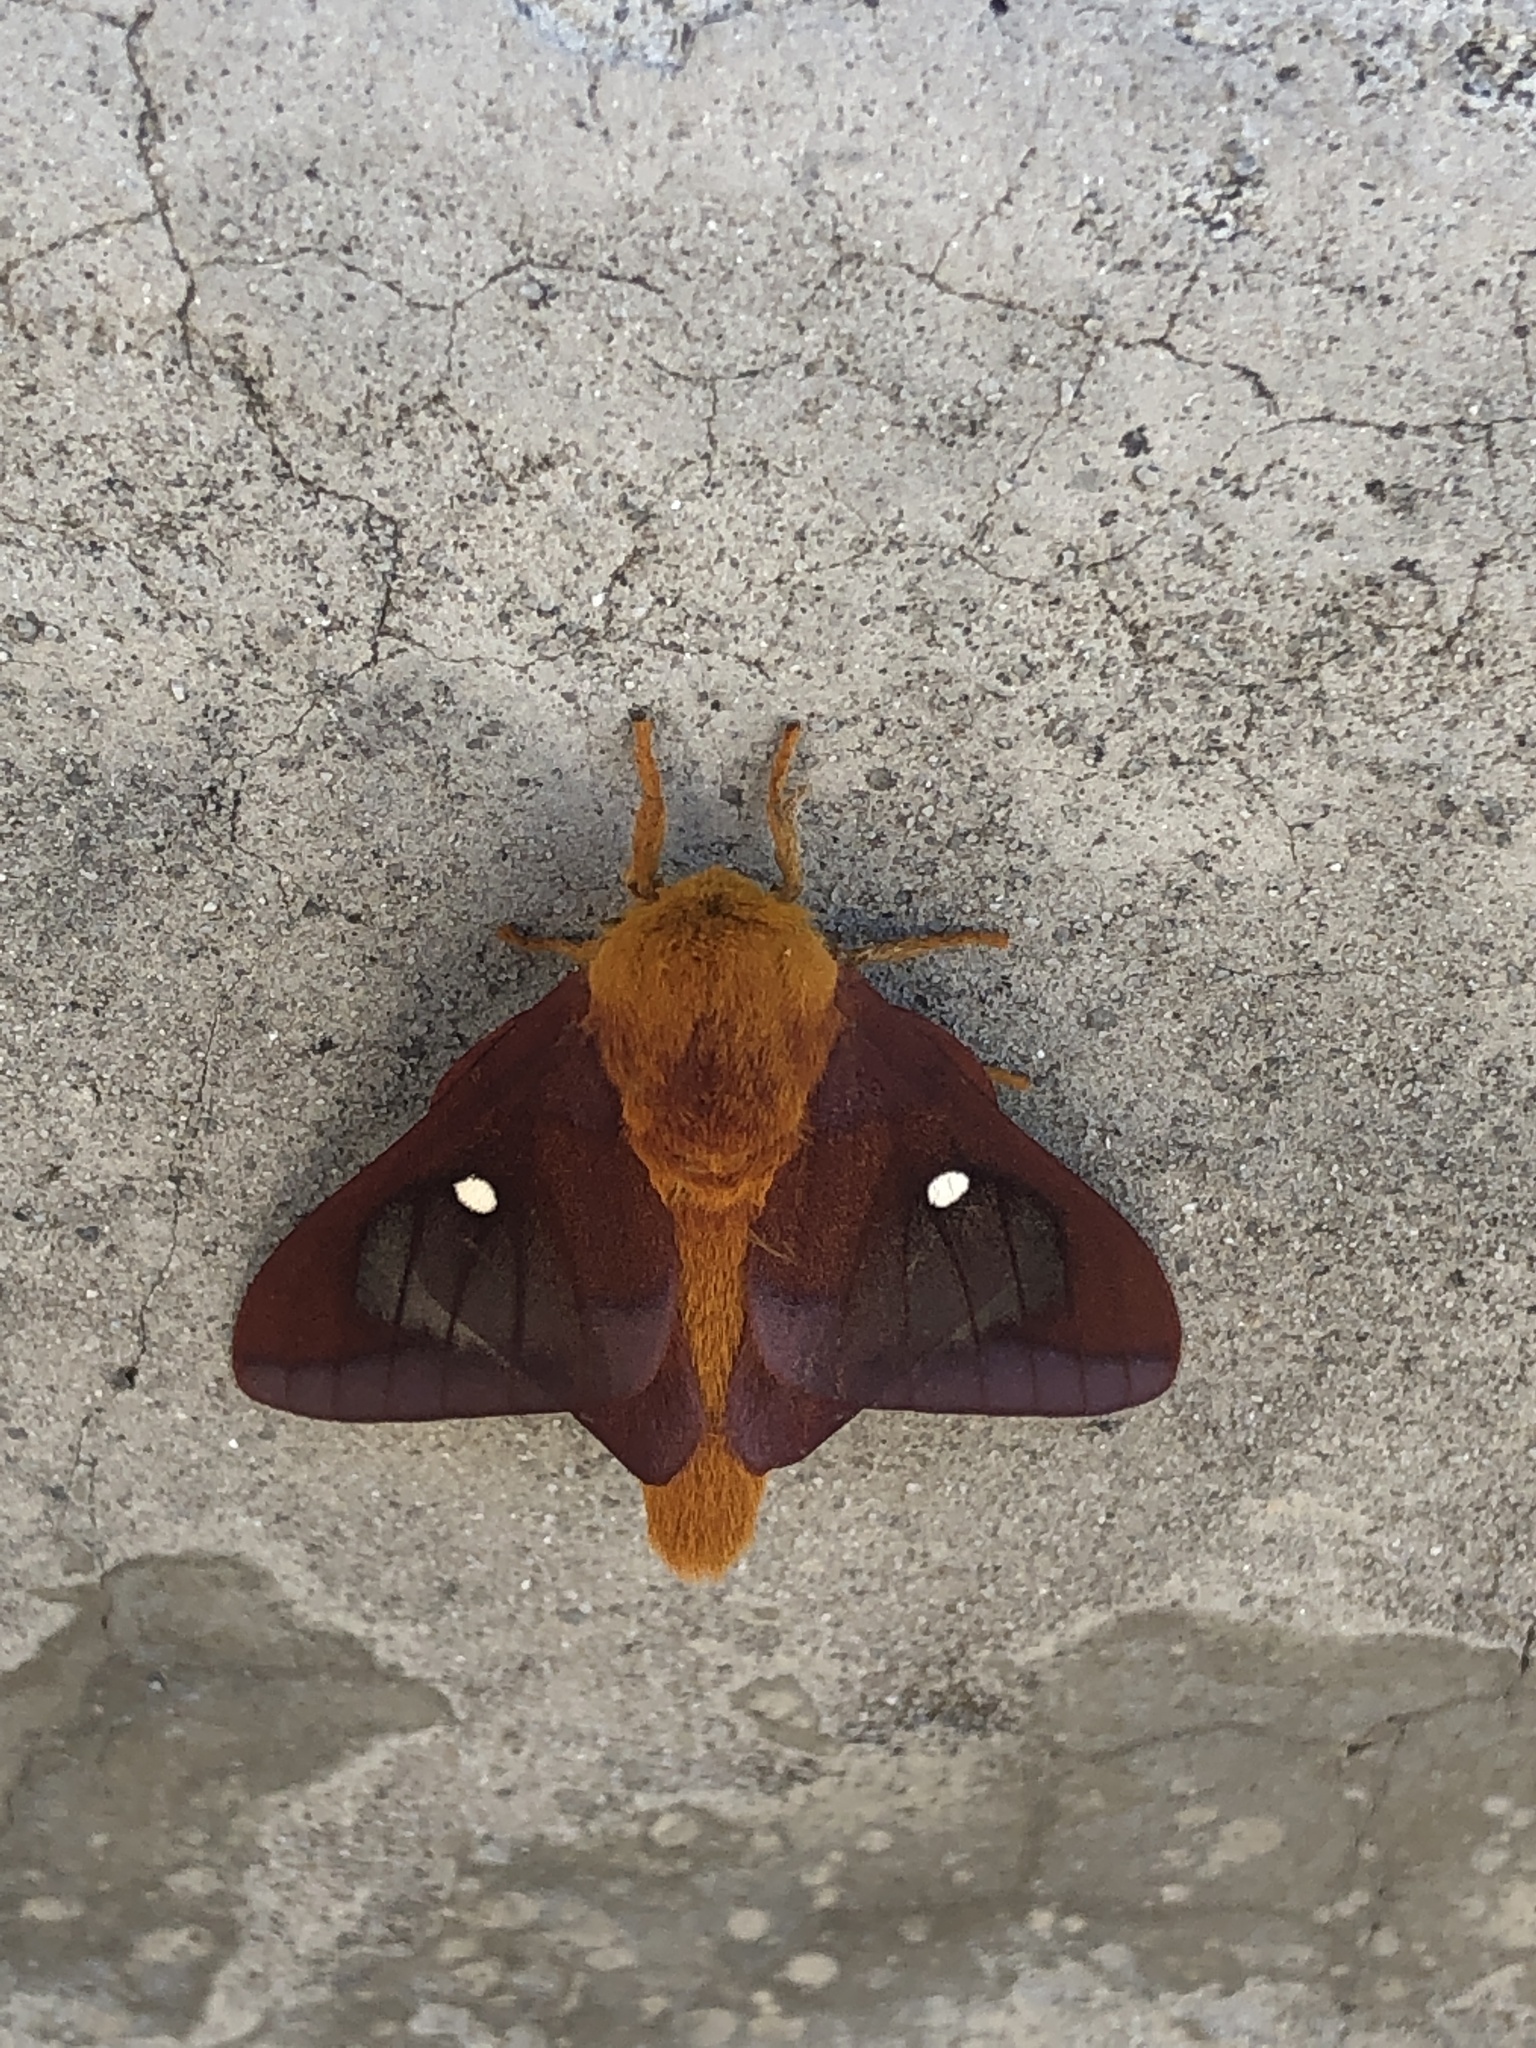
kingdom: Animalia
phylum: Arthropoda
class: Insecta
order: Lepidoptera
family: Saturniidae
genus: Anisota
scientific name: Anisota virginiensis
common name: Pink striped oakworm moth
